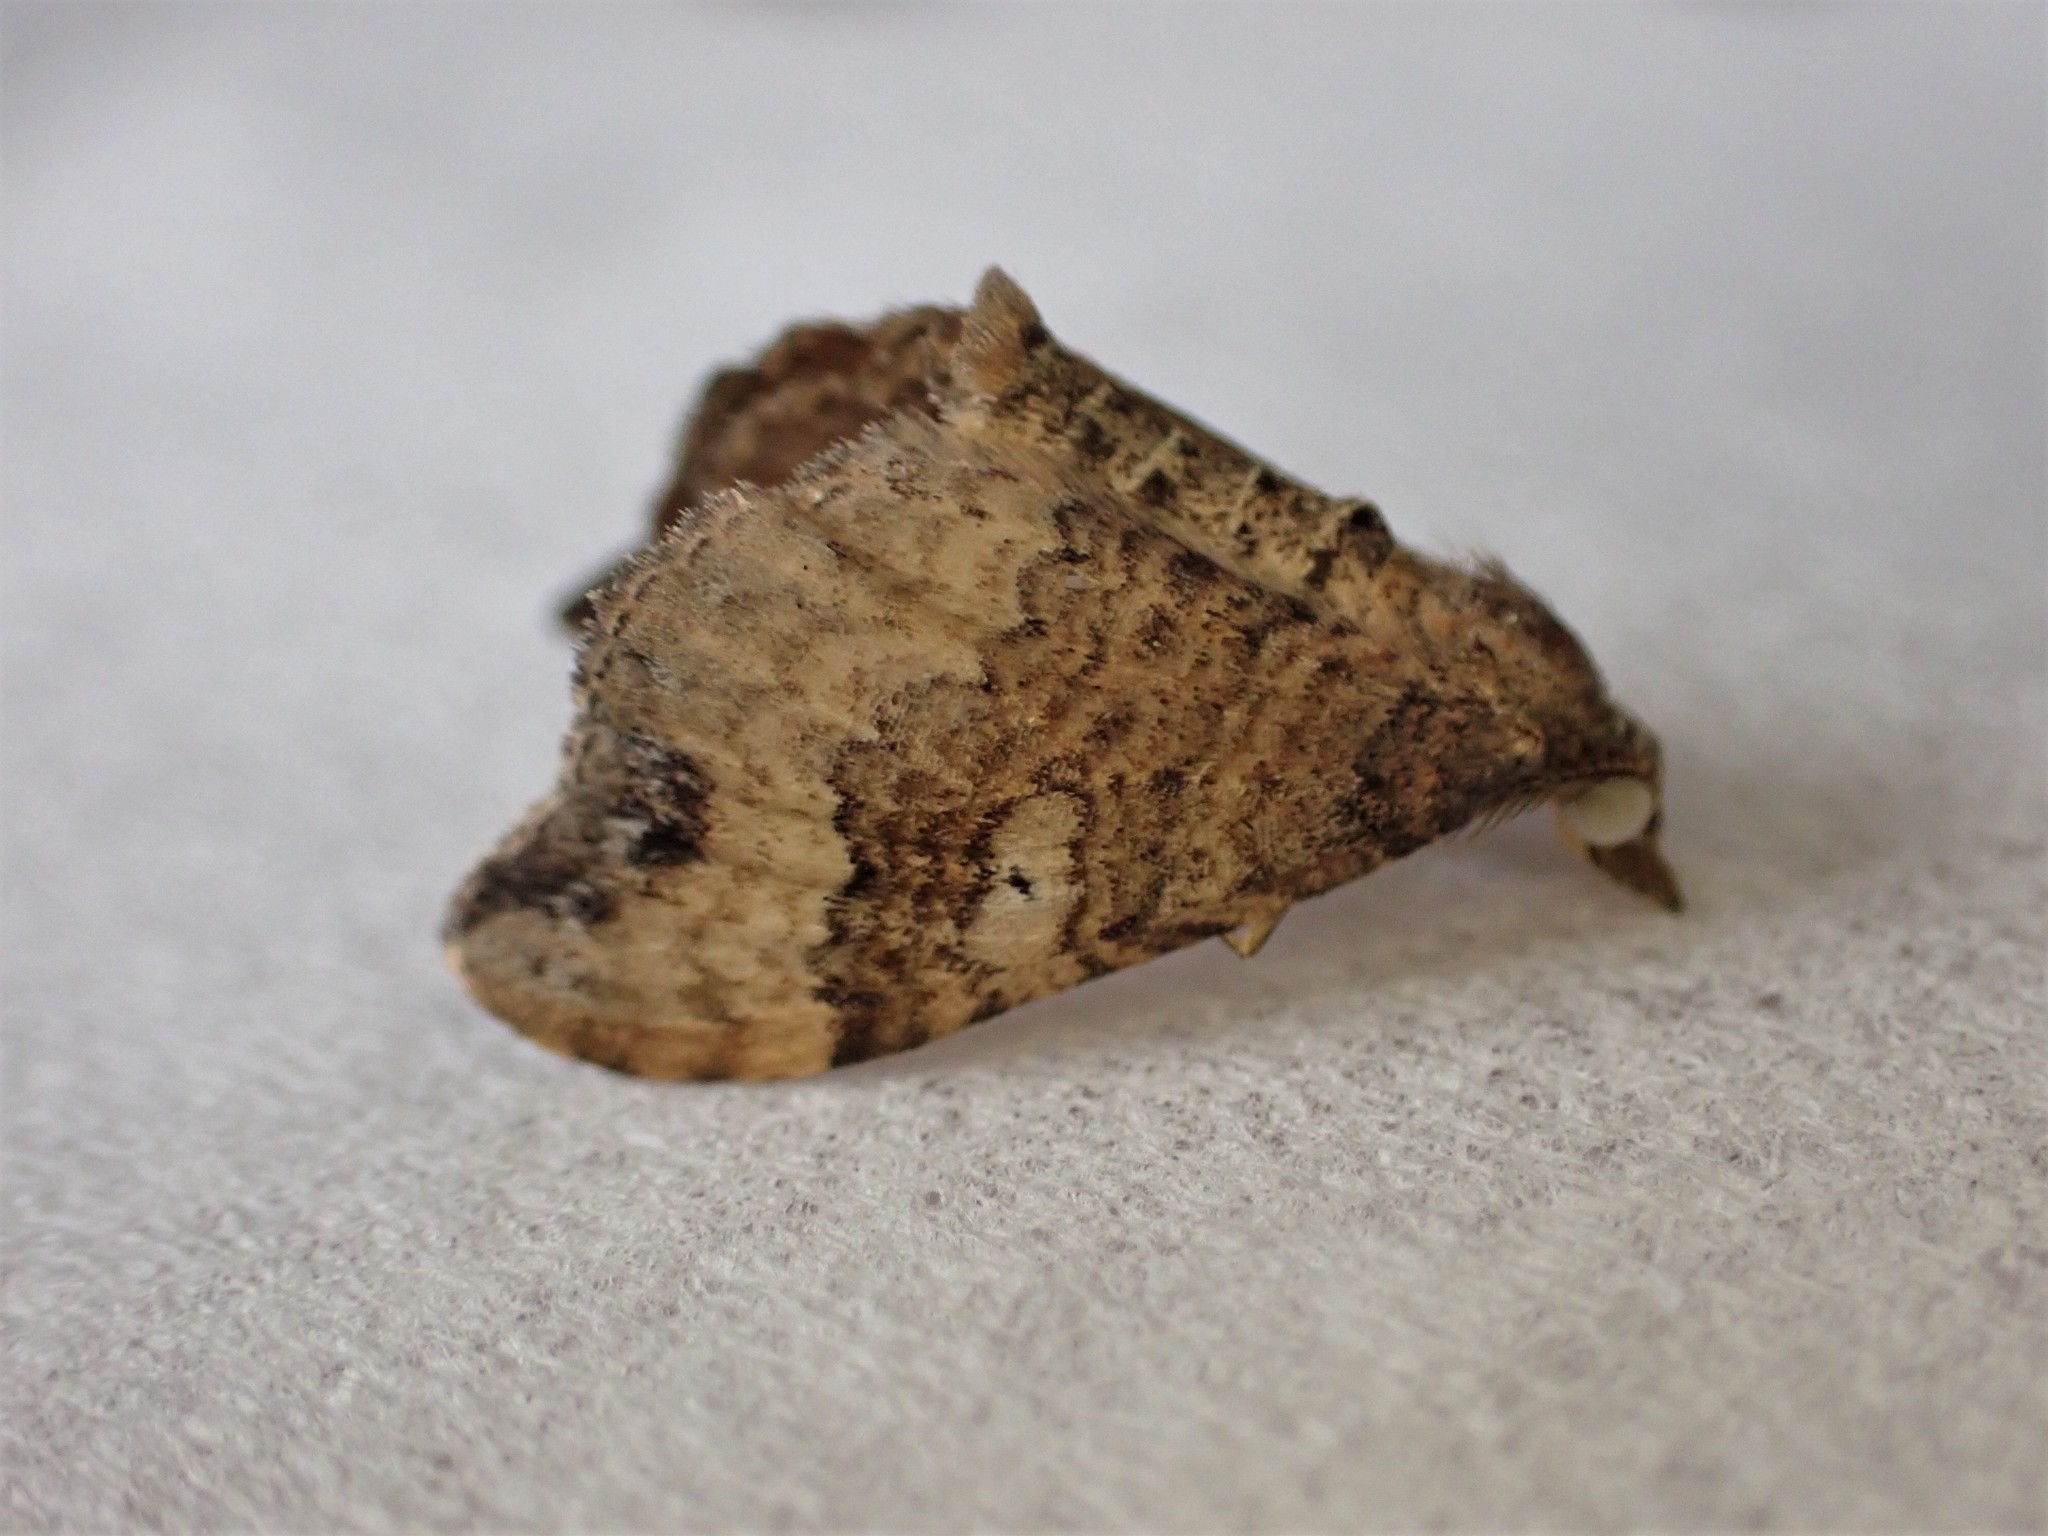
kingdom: Animalia
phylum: Arthropoda
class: Insecta
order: Lepidoptera
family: Geometridae
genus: Homodotis
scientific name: Homodotis megaspilata
